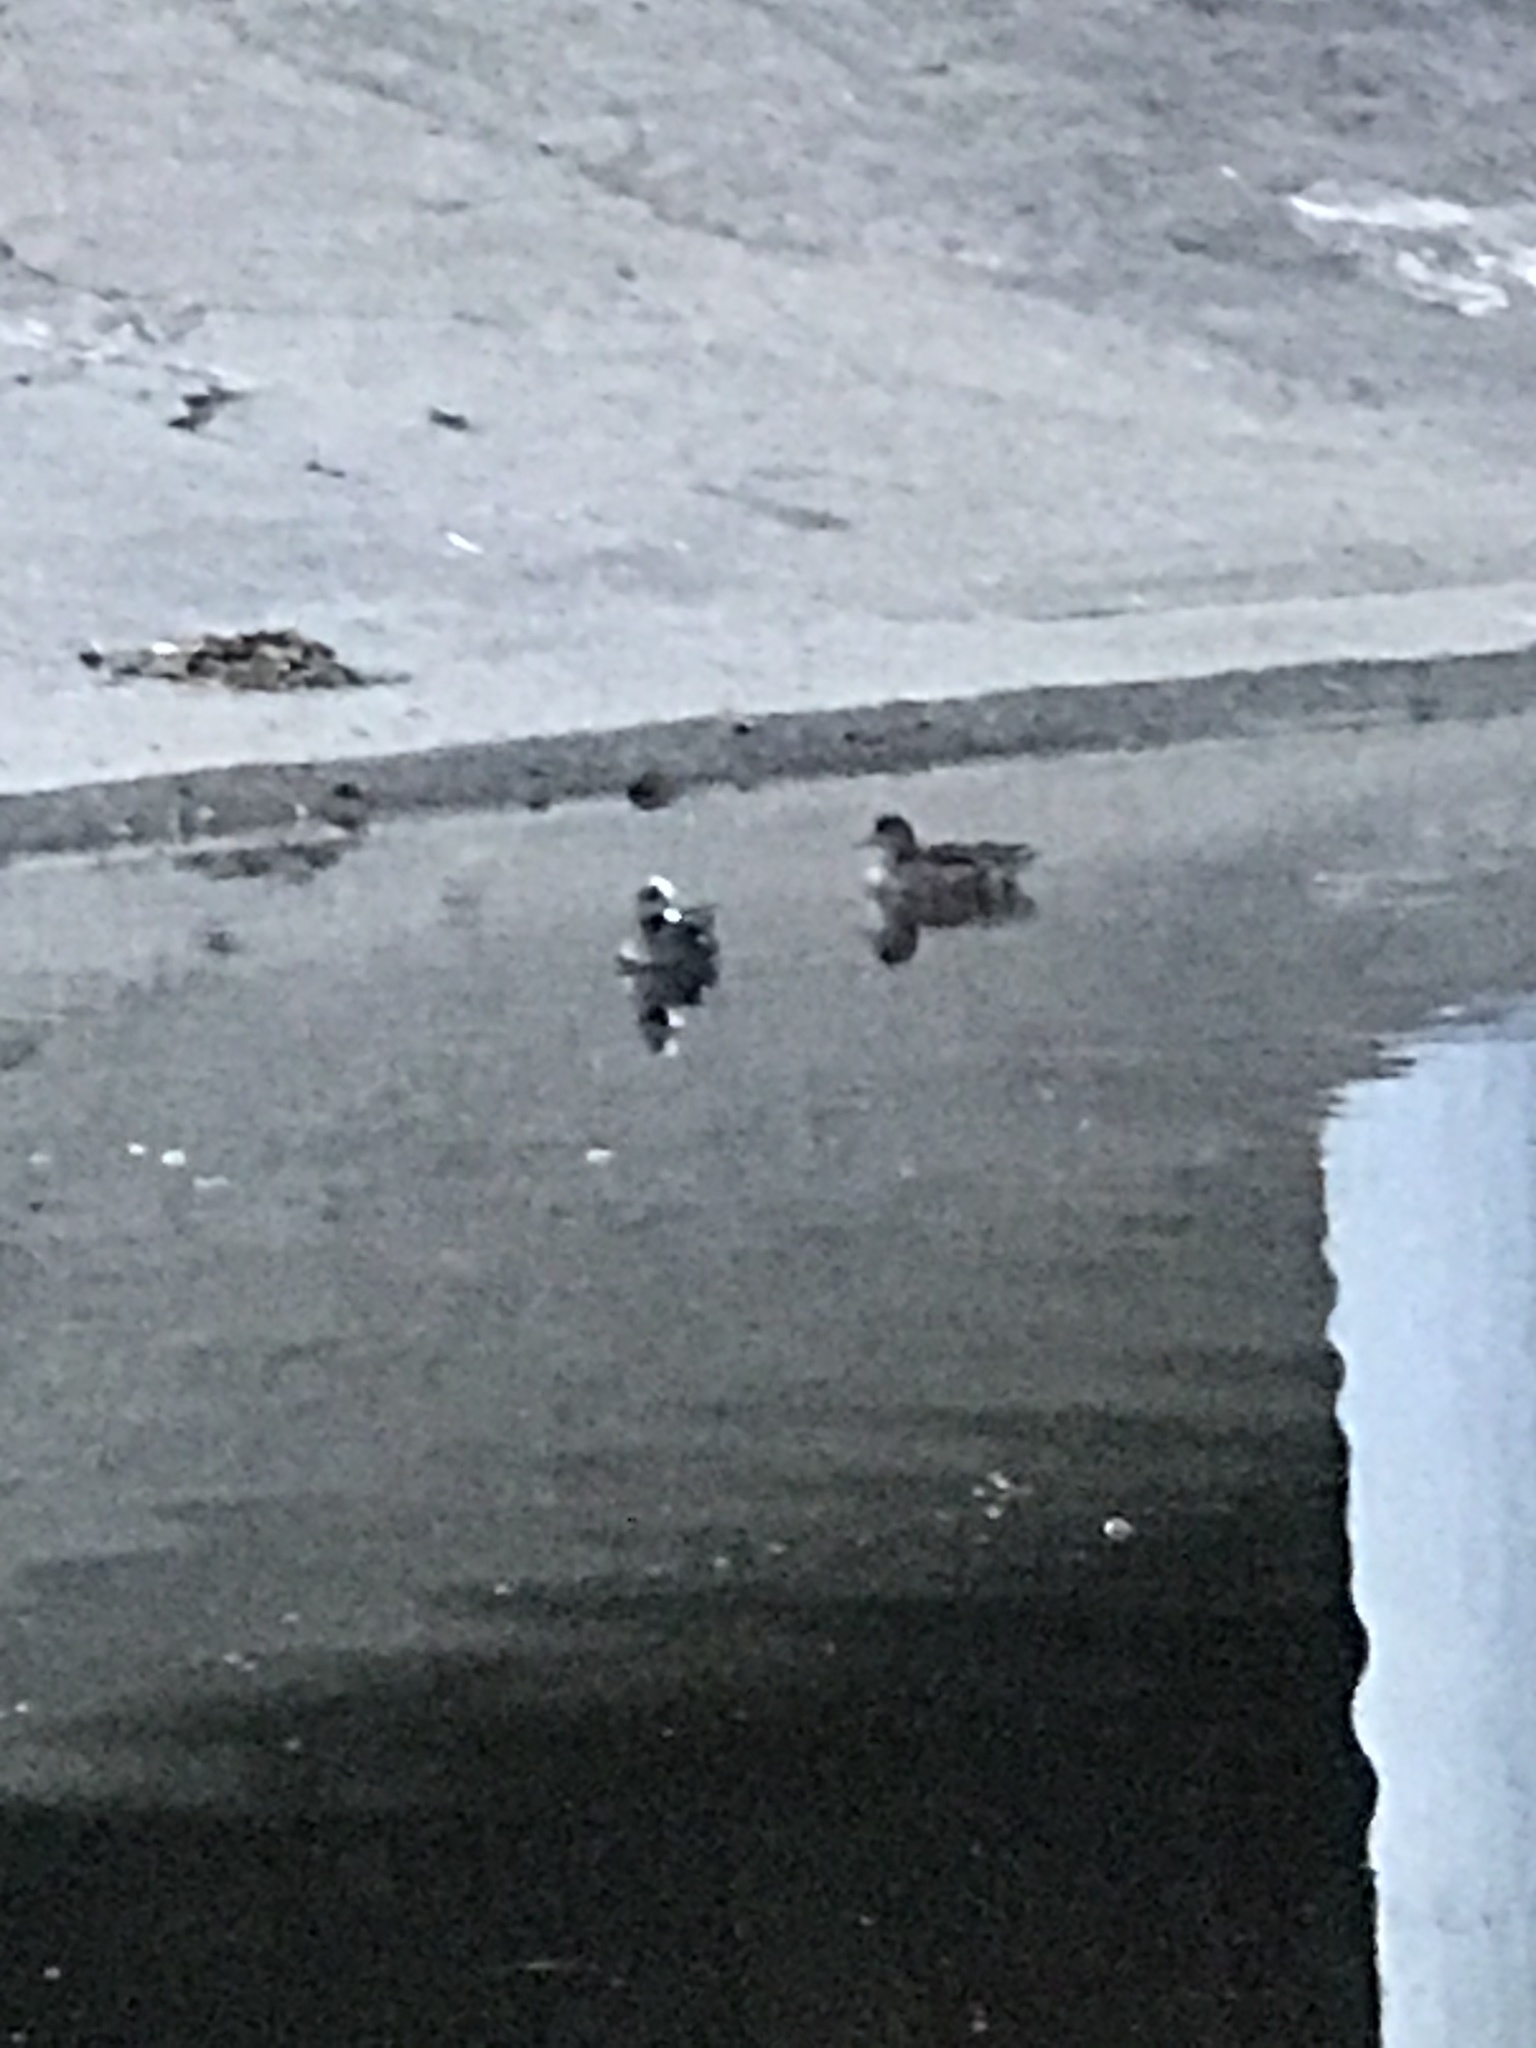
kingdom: Animalia
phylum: Chordata
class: Aves
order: Anseriformes
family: Anatidae
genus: Mareca
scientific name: Mareca americana
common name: American wigeon
